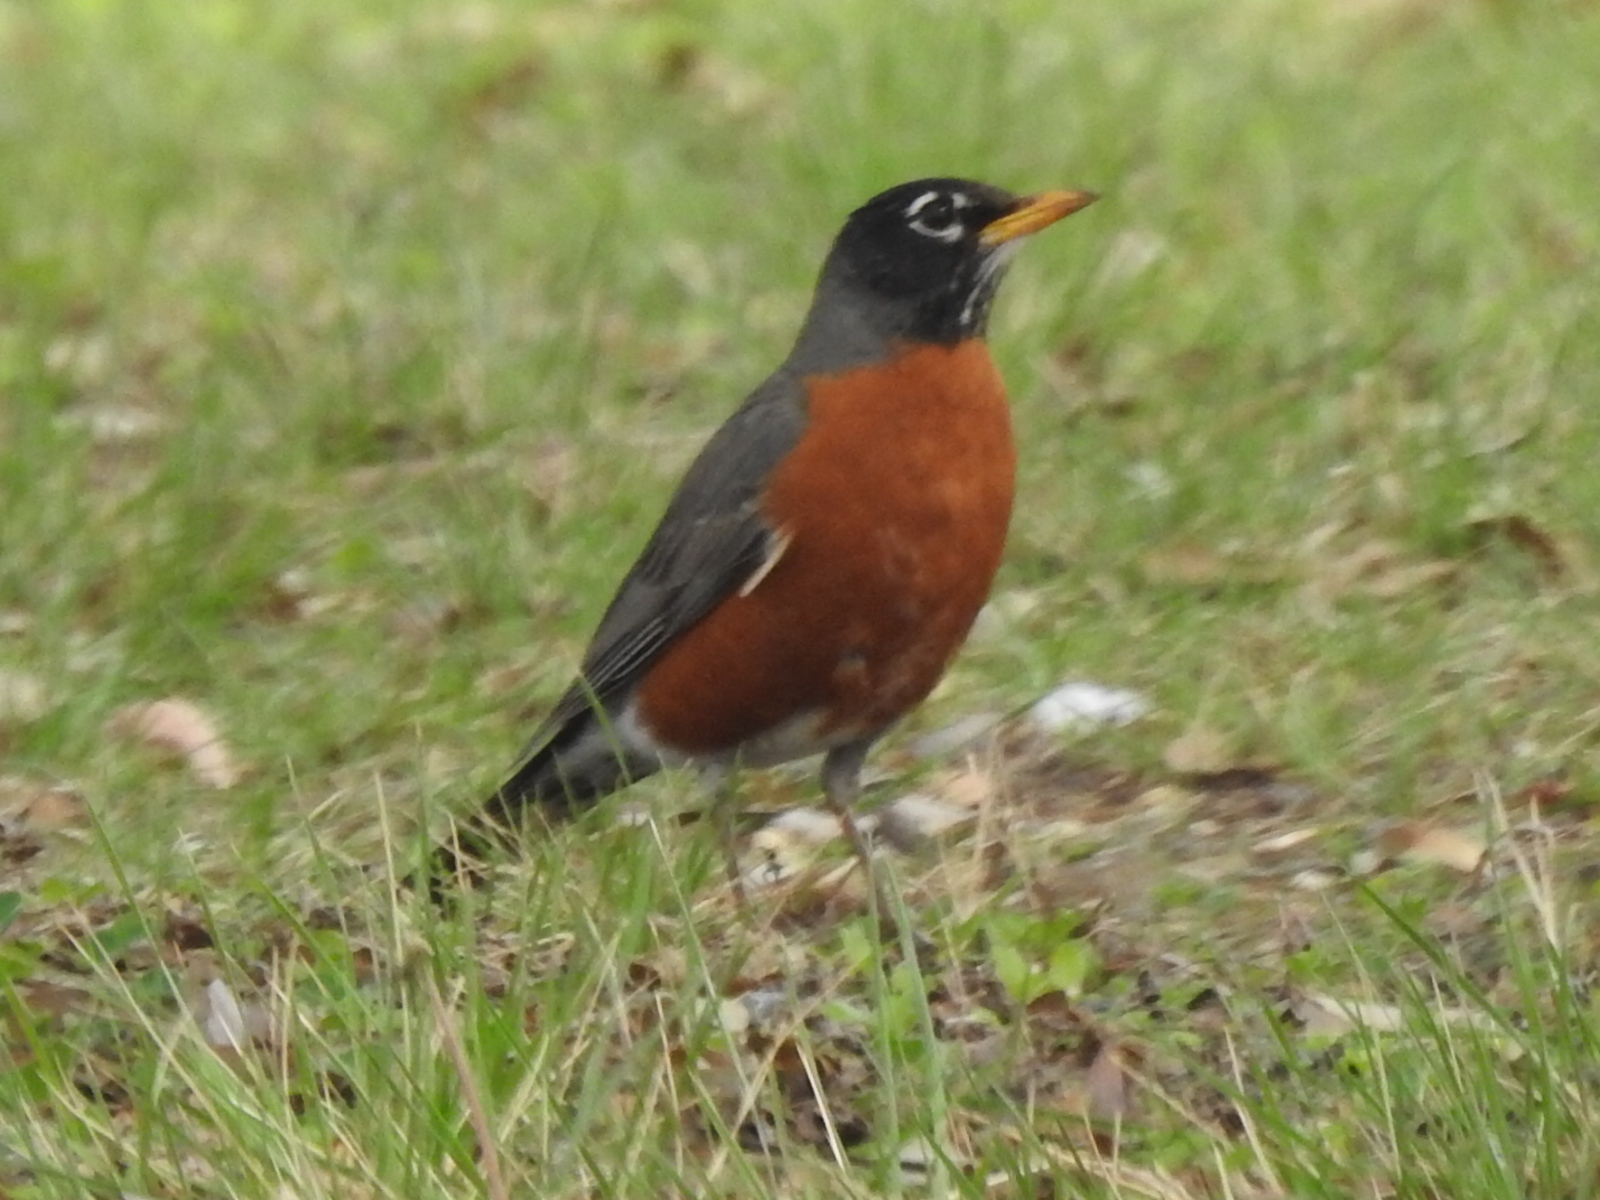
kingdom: Animalia
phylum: Chordata
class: Aves
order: Passeriformes
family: Turdidae
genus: Turdus
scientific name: Turdus migratorius
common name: American robin
